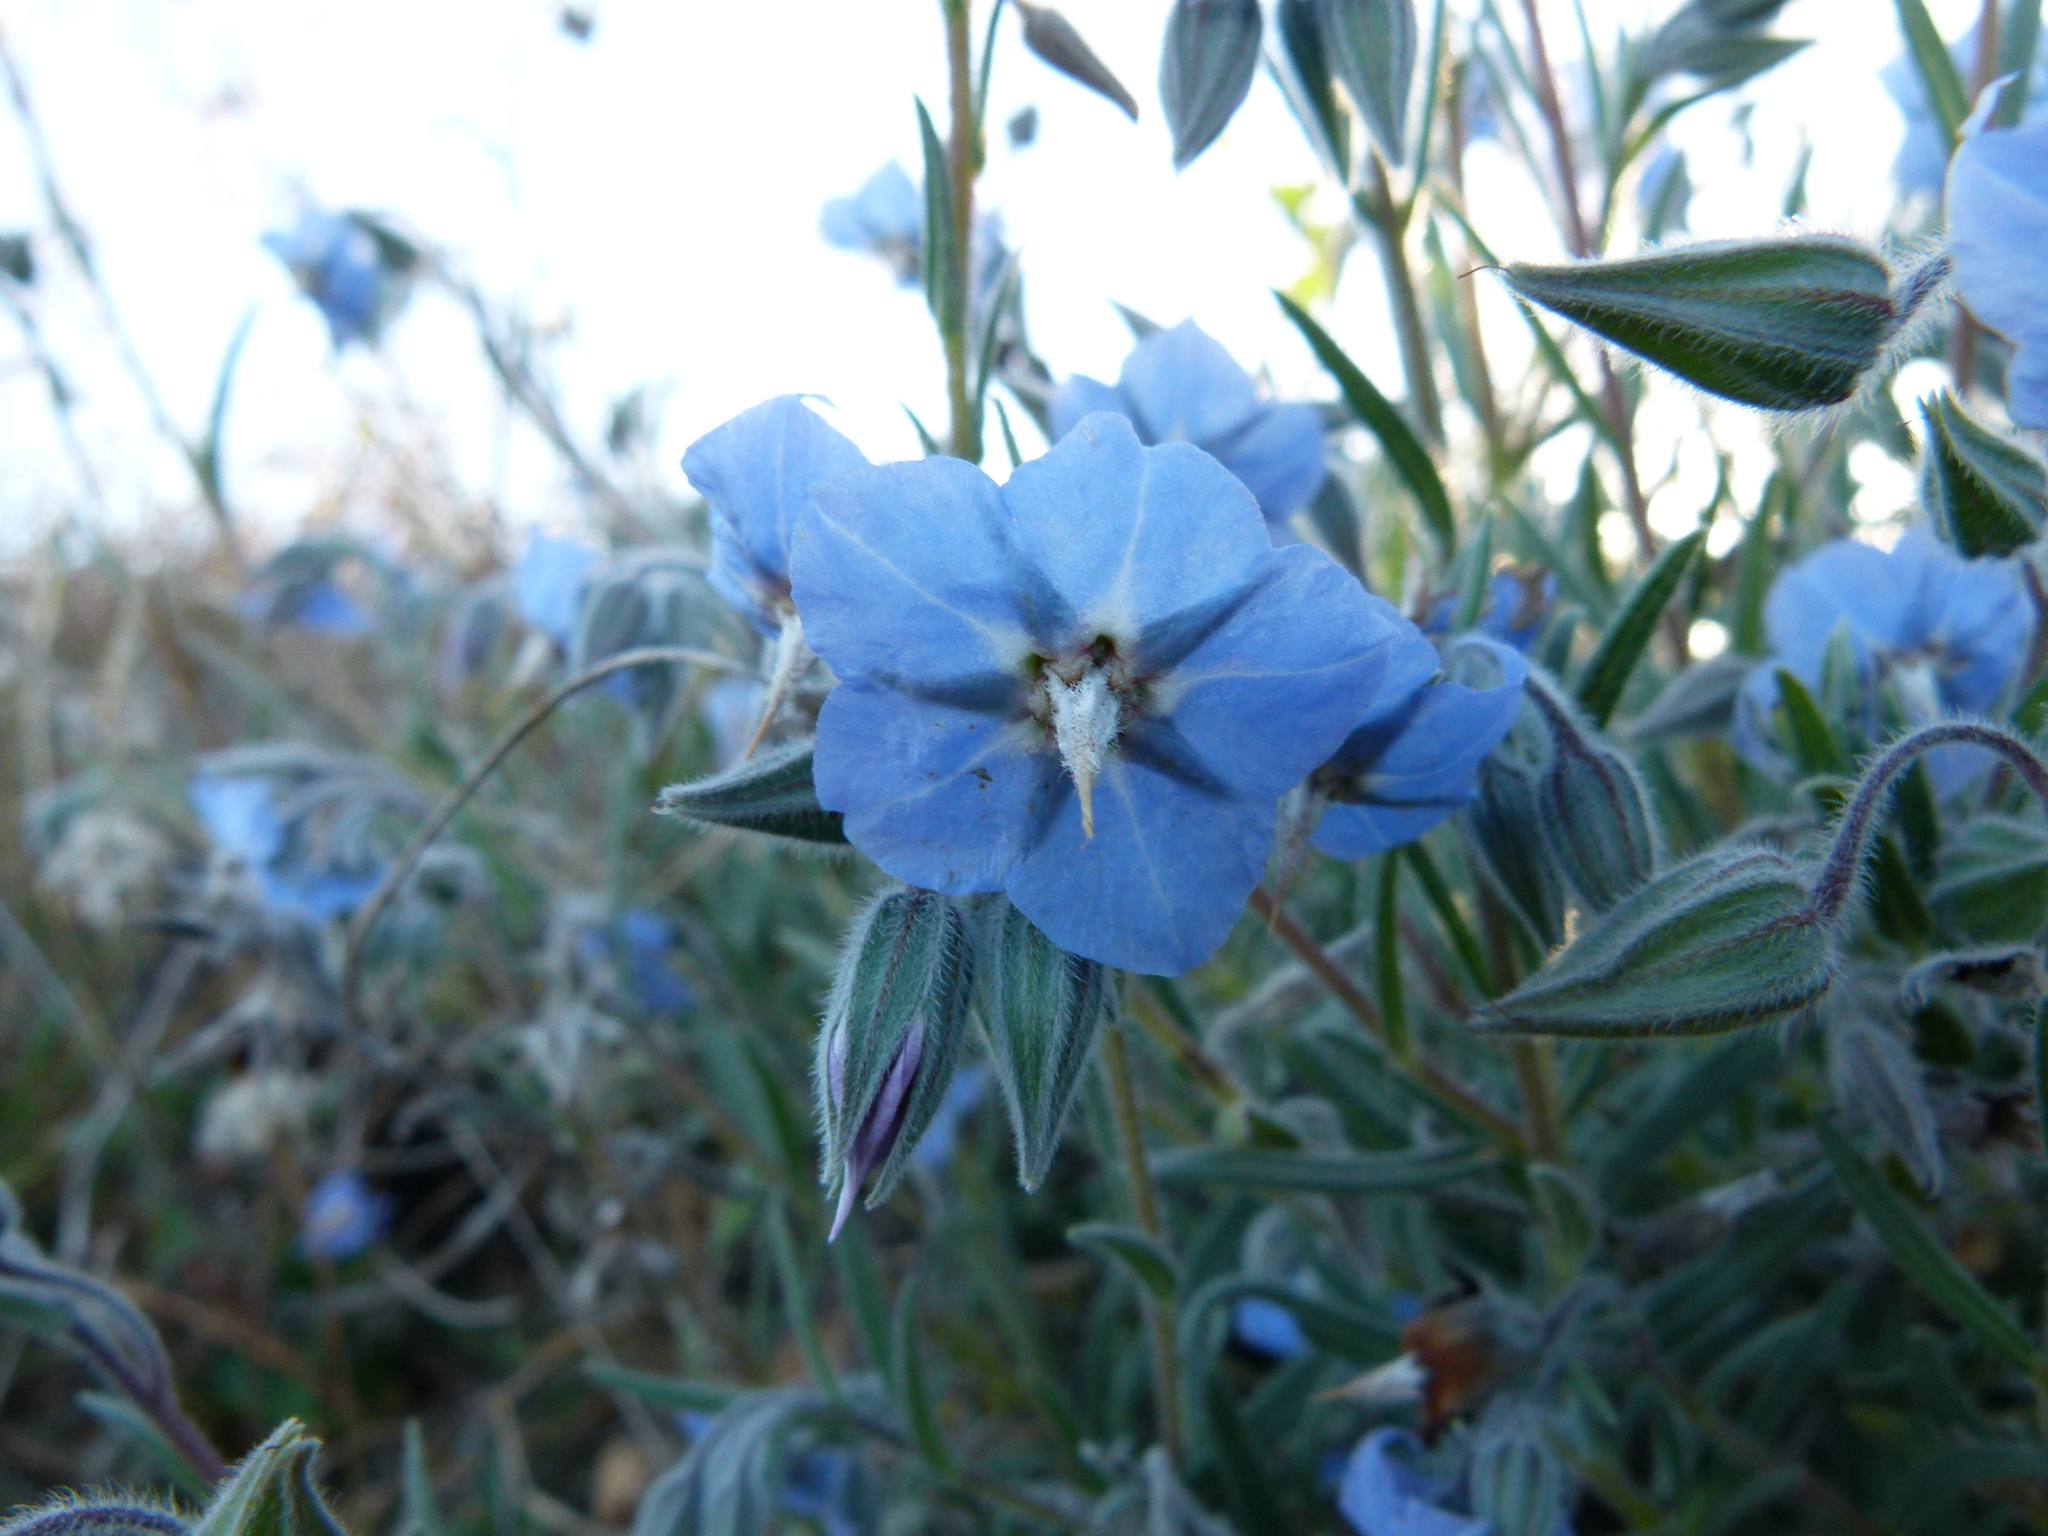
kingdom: Plantae
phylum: Tracheophyta
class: Magnoliopsida
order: Boraginales
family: Boraginaceae
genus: Trichodesma
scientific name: Trichodesma zeylanicum
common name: Camelbush
